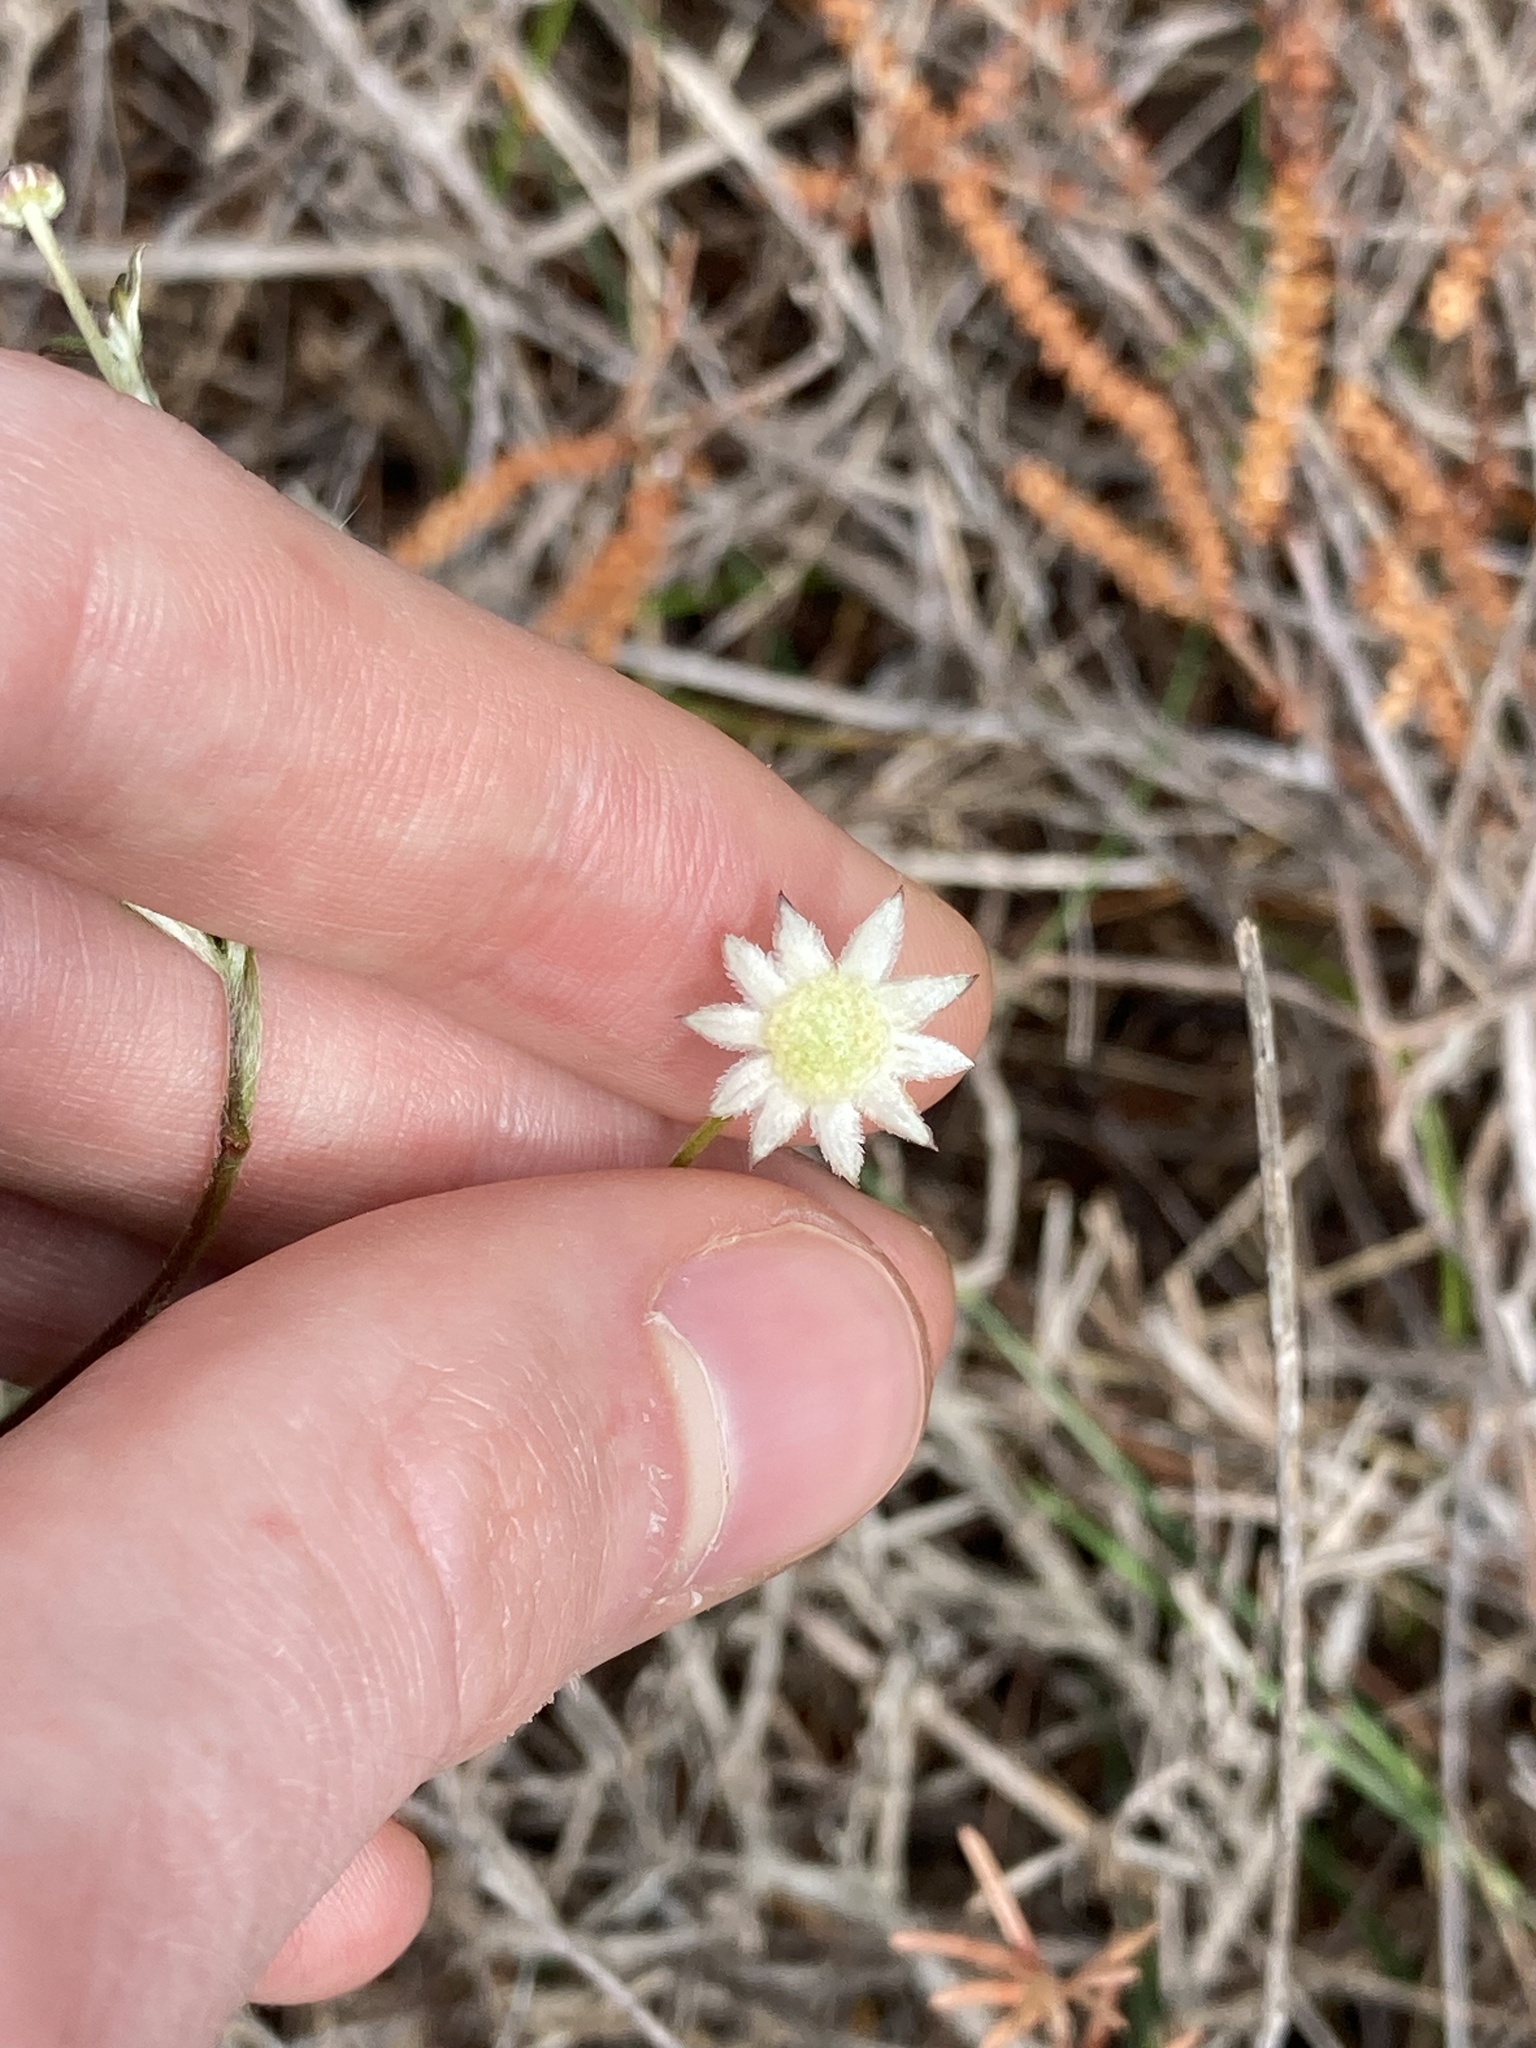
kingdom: Plantae
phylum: Tracheophyta
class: Magnoliopsida
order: Apiales
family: Apiaceae
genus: Actinotus
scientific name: Actinotus minor
